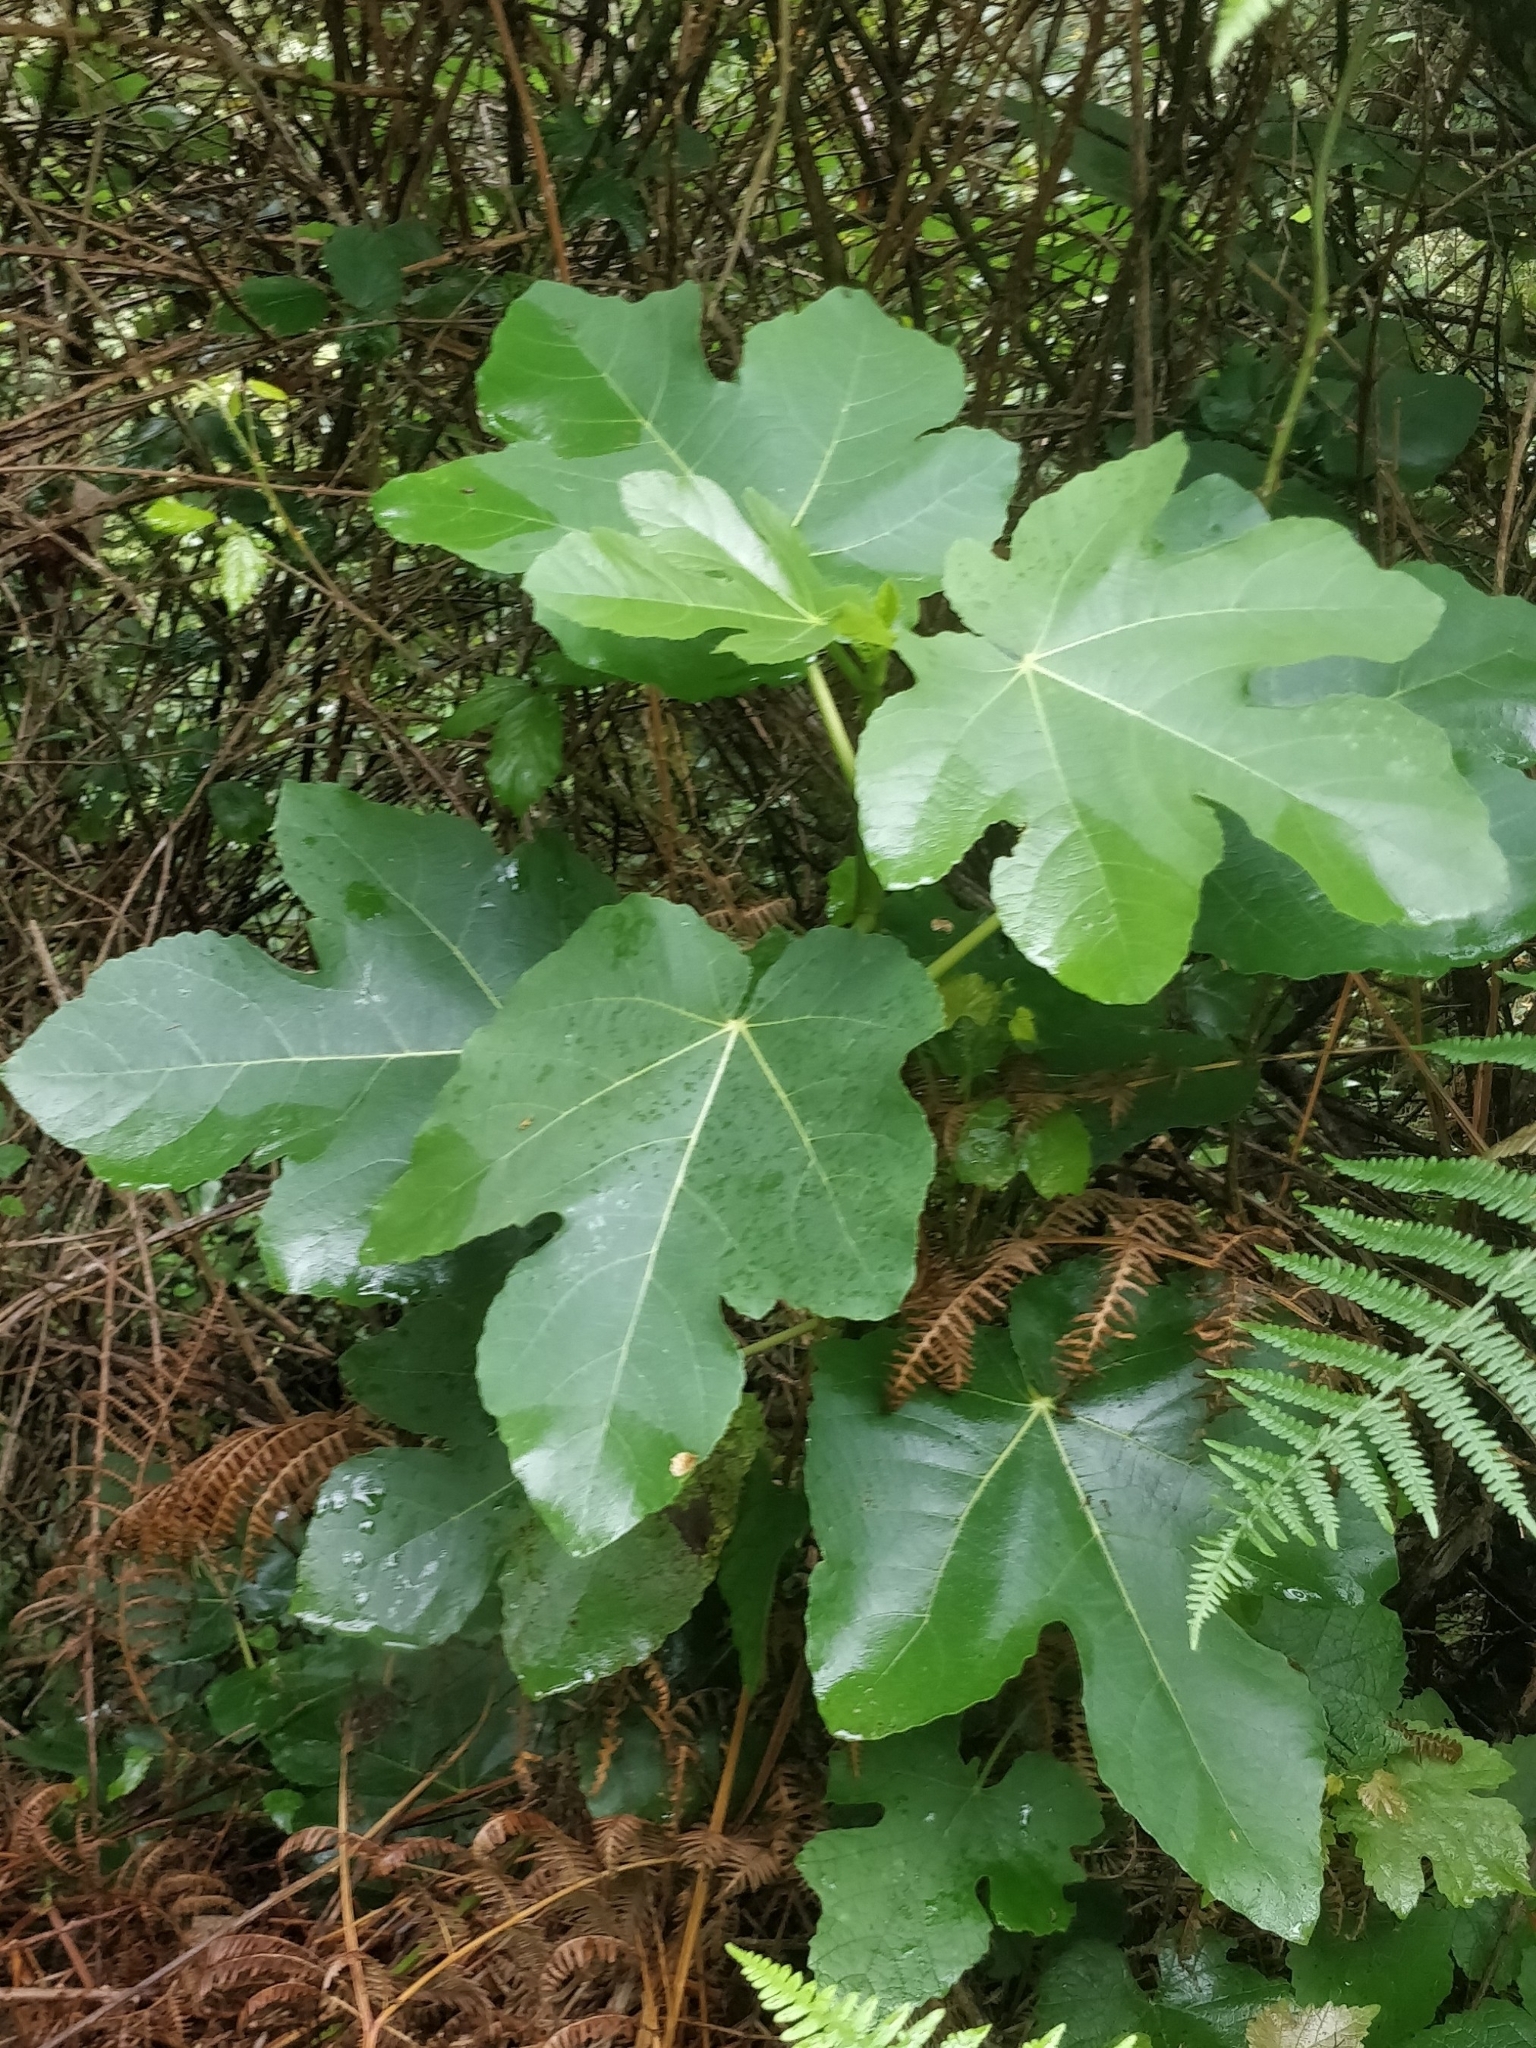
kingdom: Plantae
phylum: Tracheophyta
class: Magnoliopsida
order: Rosales
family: Moraceae
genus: Ficus
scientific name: Ficus carica
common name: Fig
